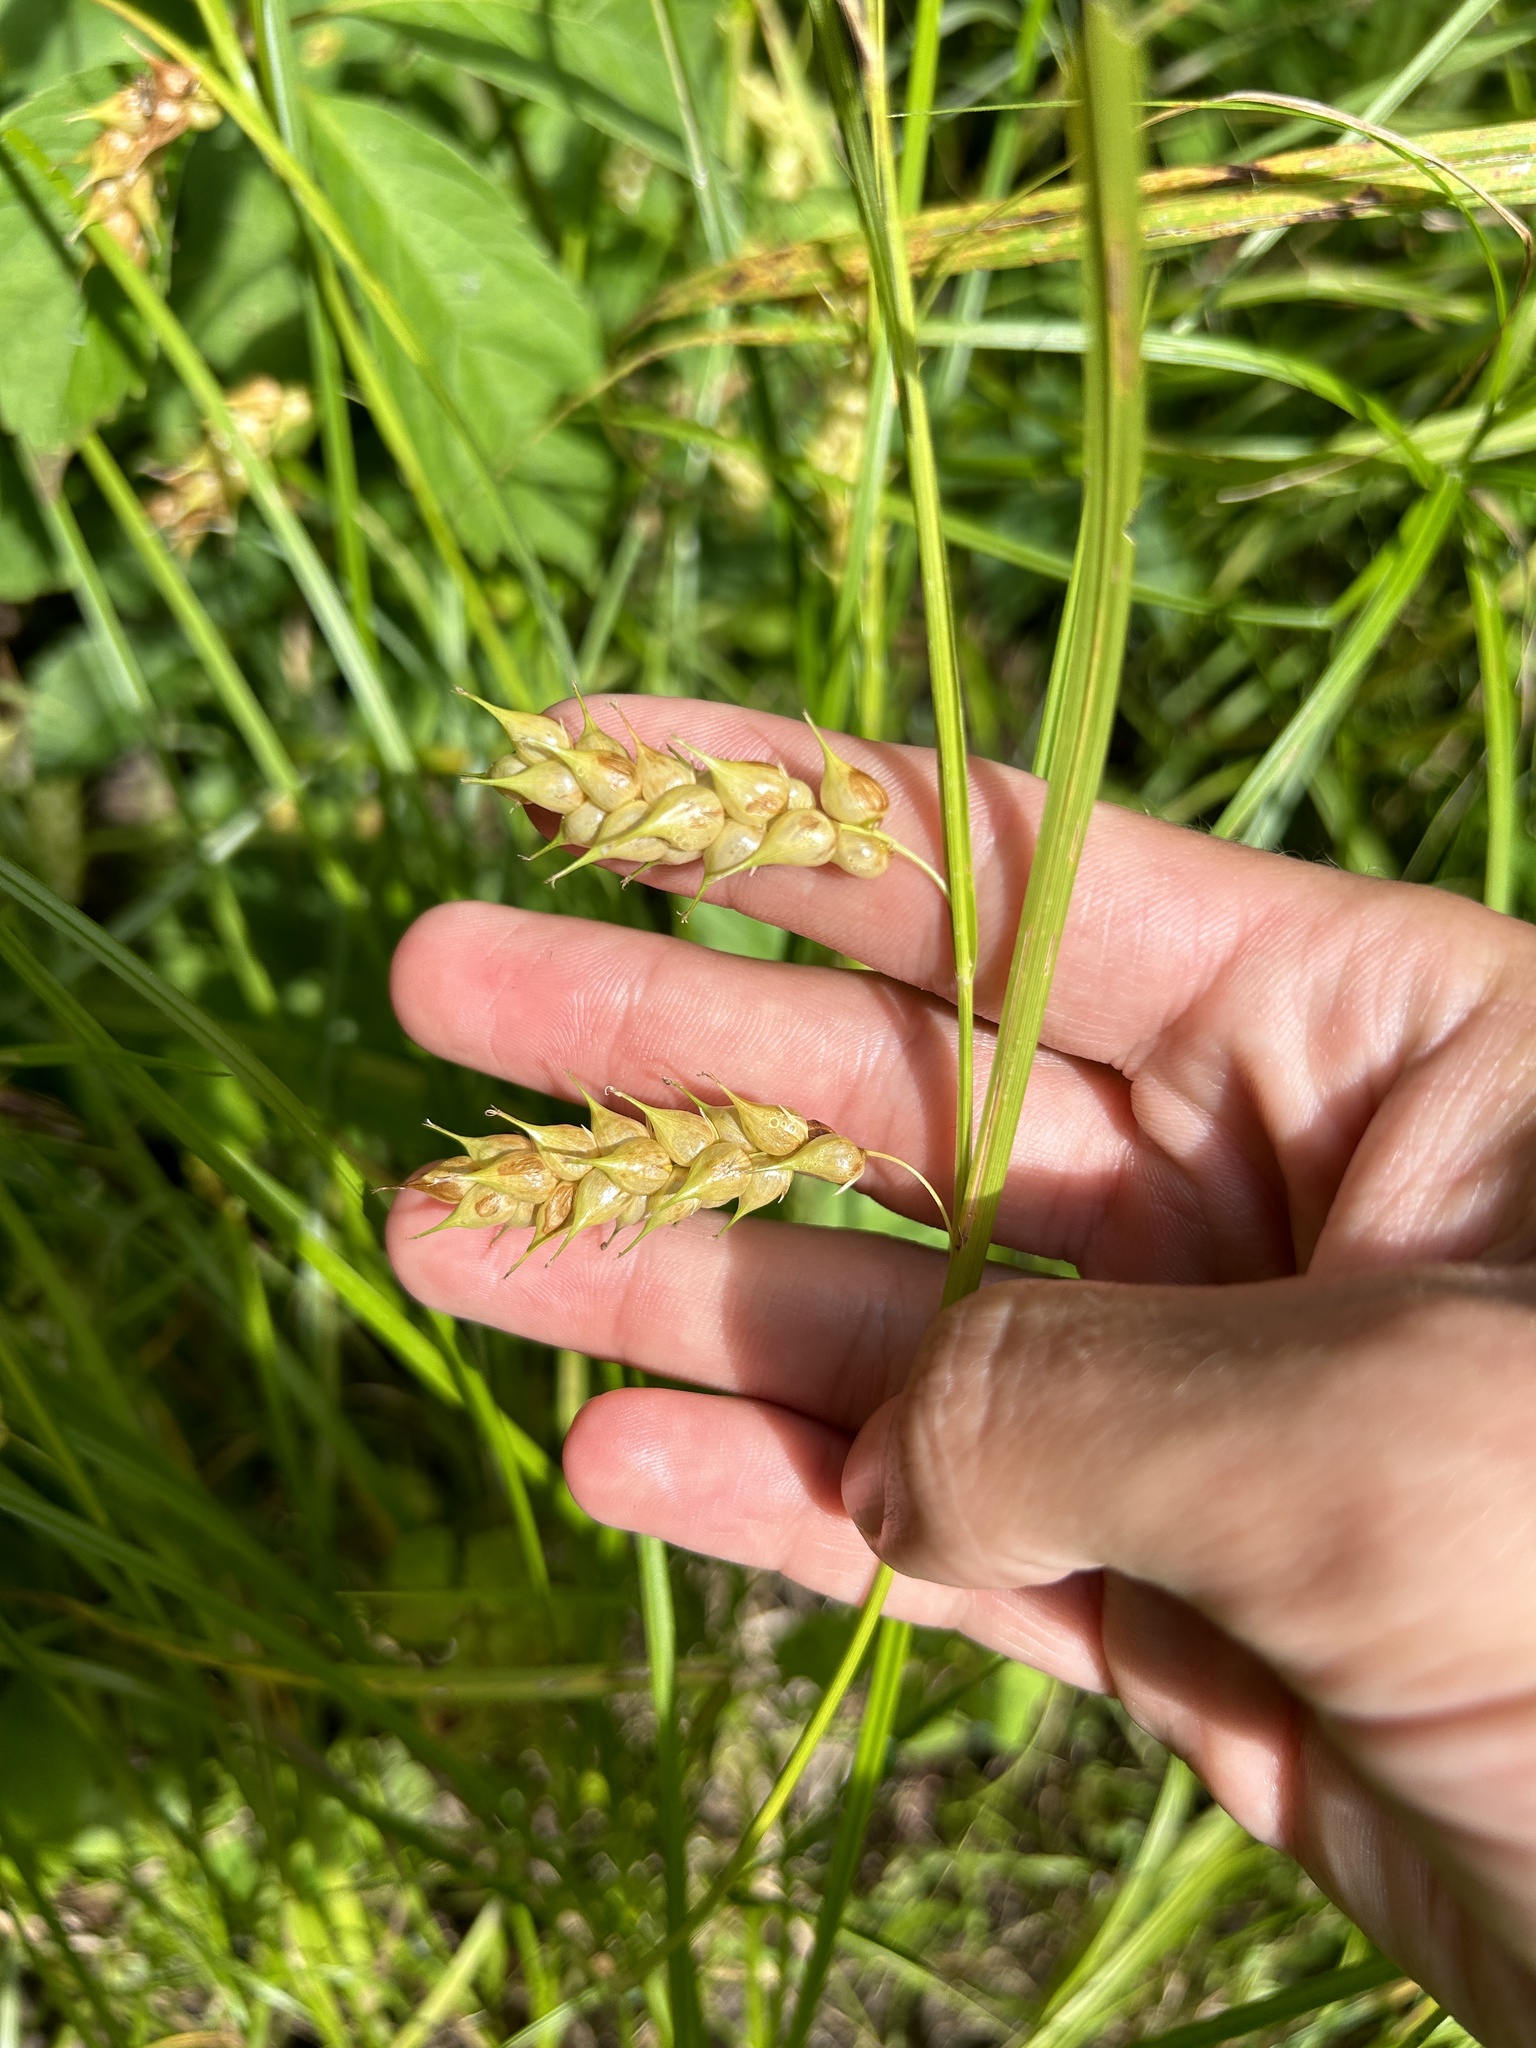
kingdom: Plantae
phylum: Tracheophyta
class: Liliopsida
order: Poales
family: Cyperaceae
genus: Carex
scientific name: Carex tuckermanii
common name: Tuckerman's sedge
